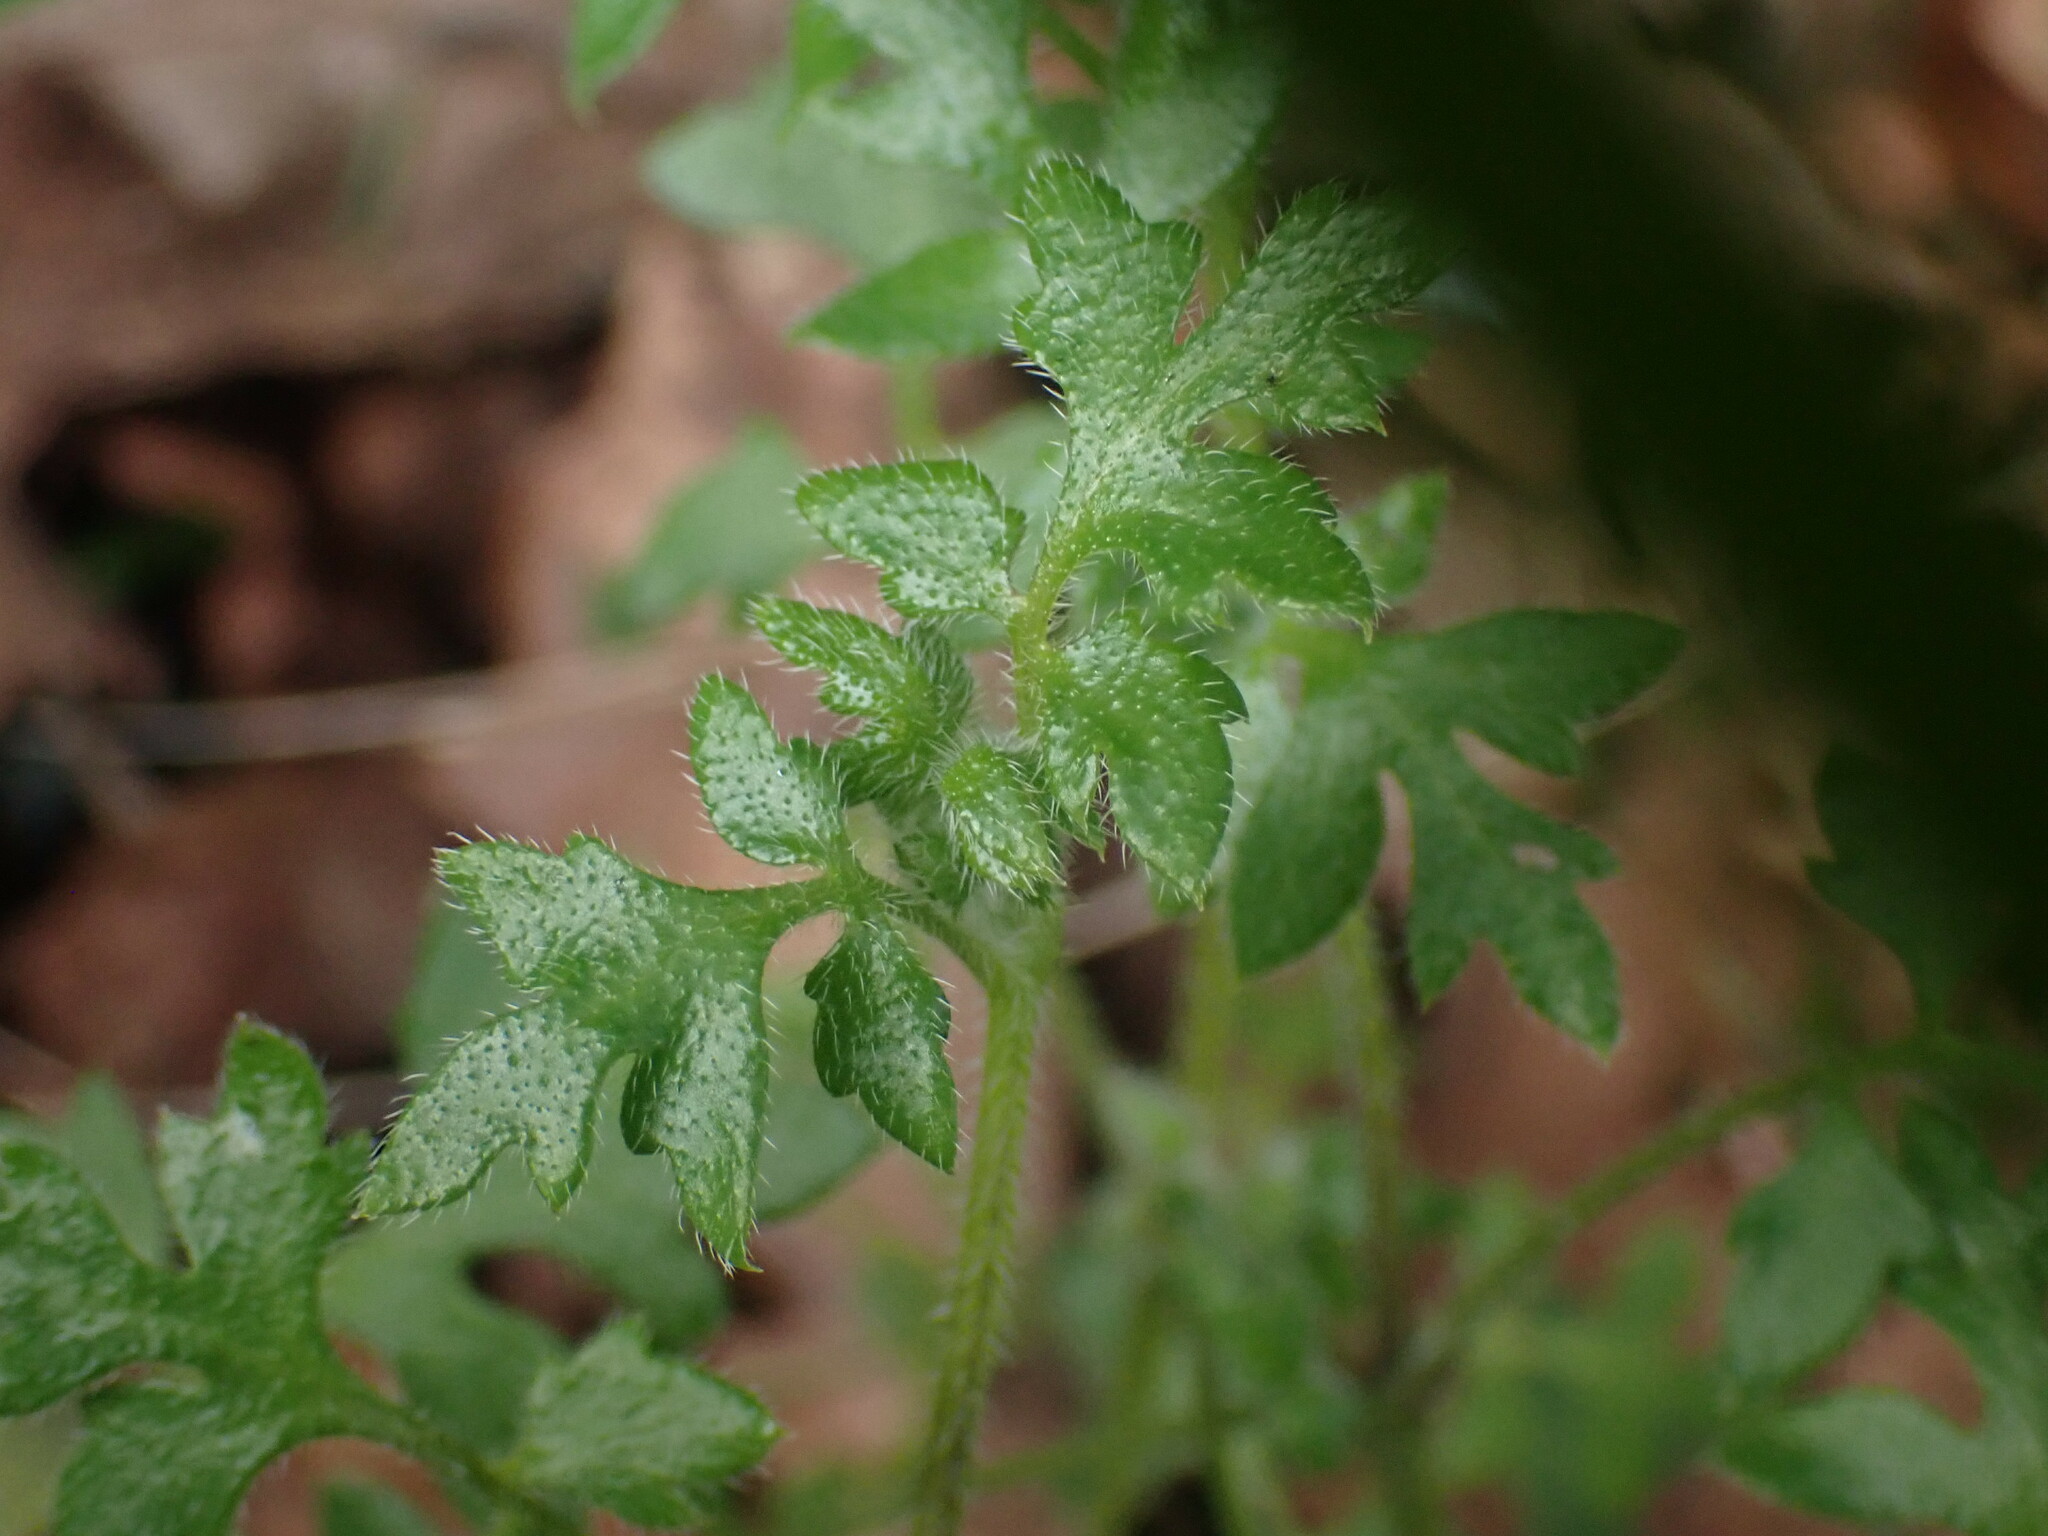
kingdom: Plantae
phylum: Tracheophyta
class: Magnoliopsida
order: Boraginales
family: Hydrophyllaceae
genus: Nemophila
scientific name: Nemophila parviflora
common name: Small-flowered baby-blue-eyes
